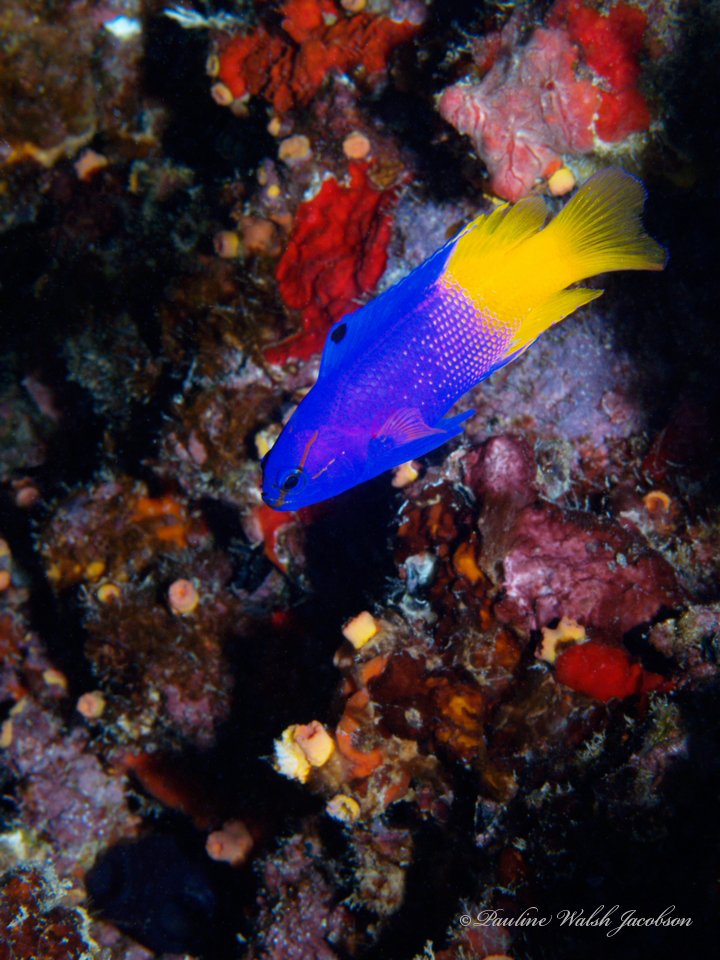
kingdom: Animalia
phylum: Chordata
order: Perciformes
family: Grammatidae
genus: Gramma
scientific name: Gramma loreto
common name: Fairy basslet
